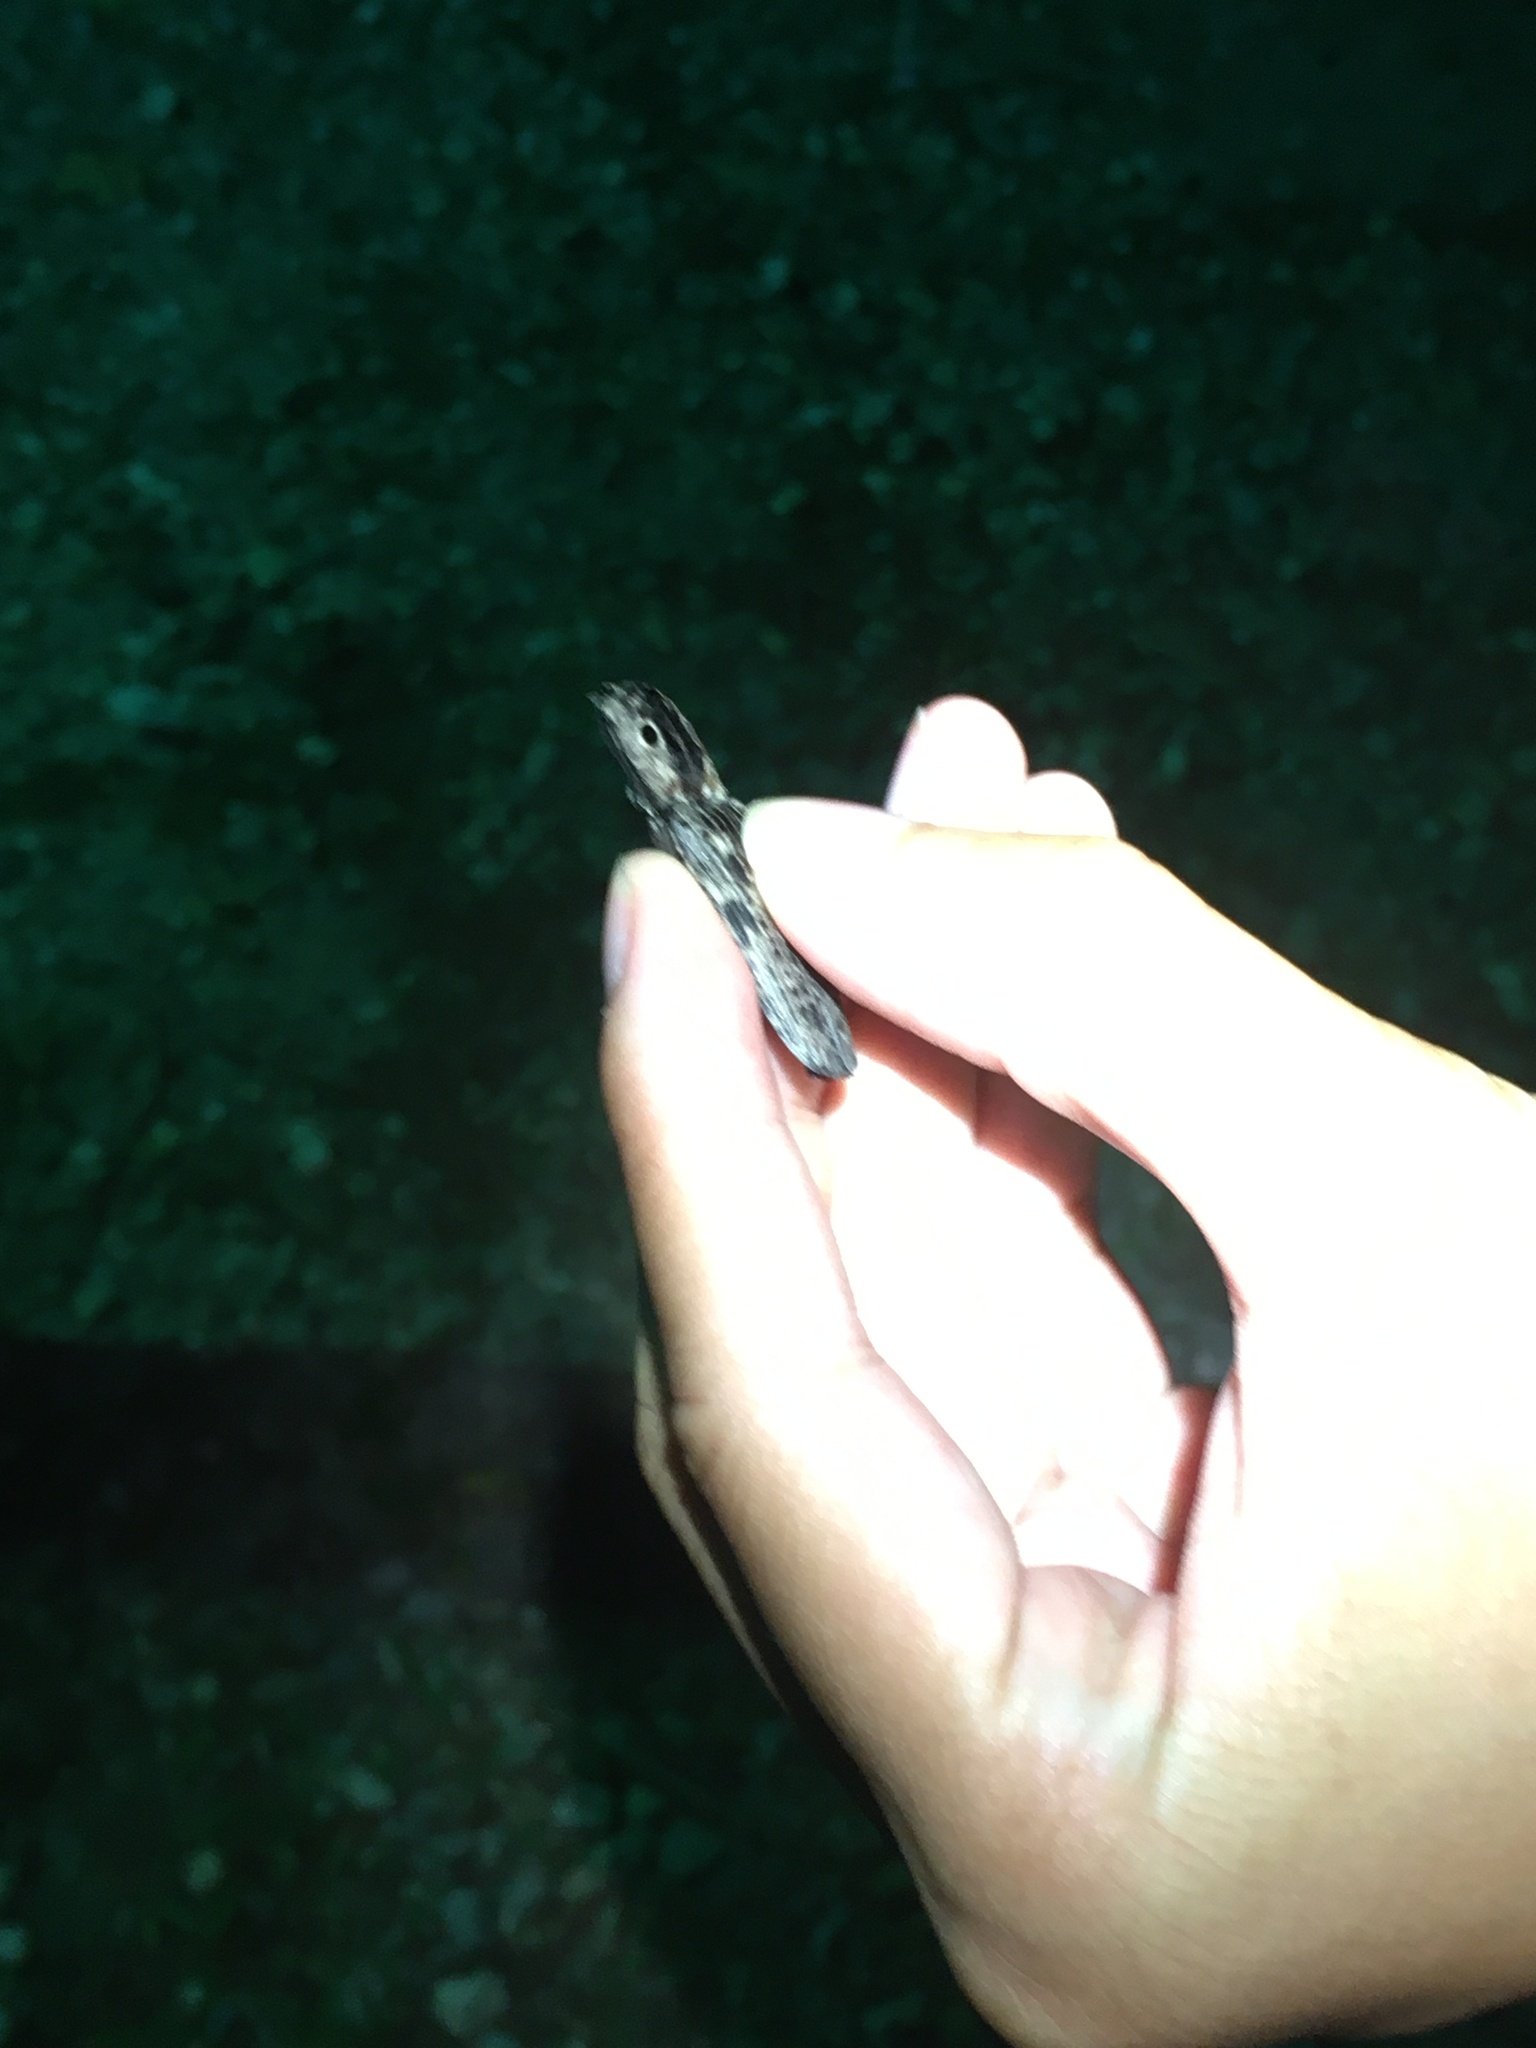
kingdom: Animalia
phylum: Arthropoda
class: Insecta
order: Coleoptera
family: Elateridae
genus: Alaus
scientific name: Alaus myops
